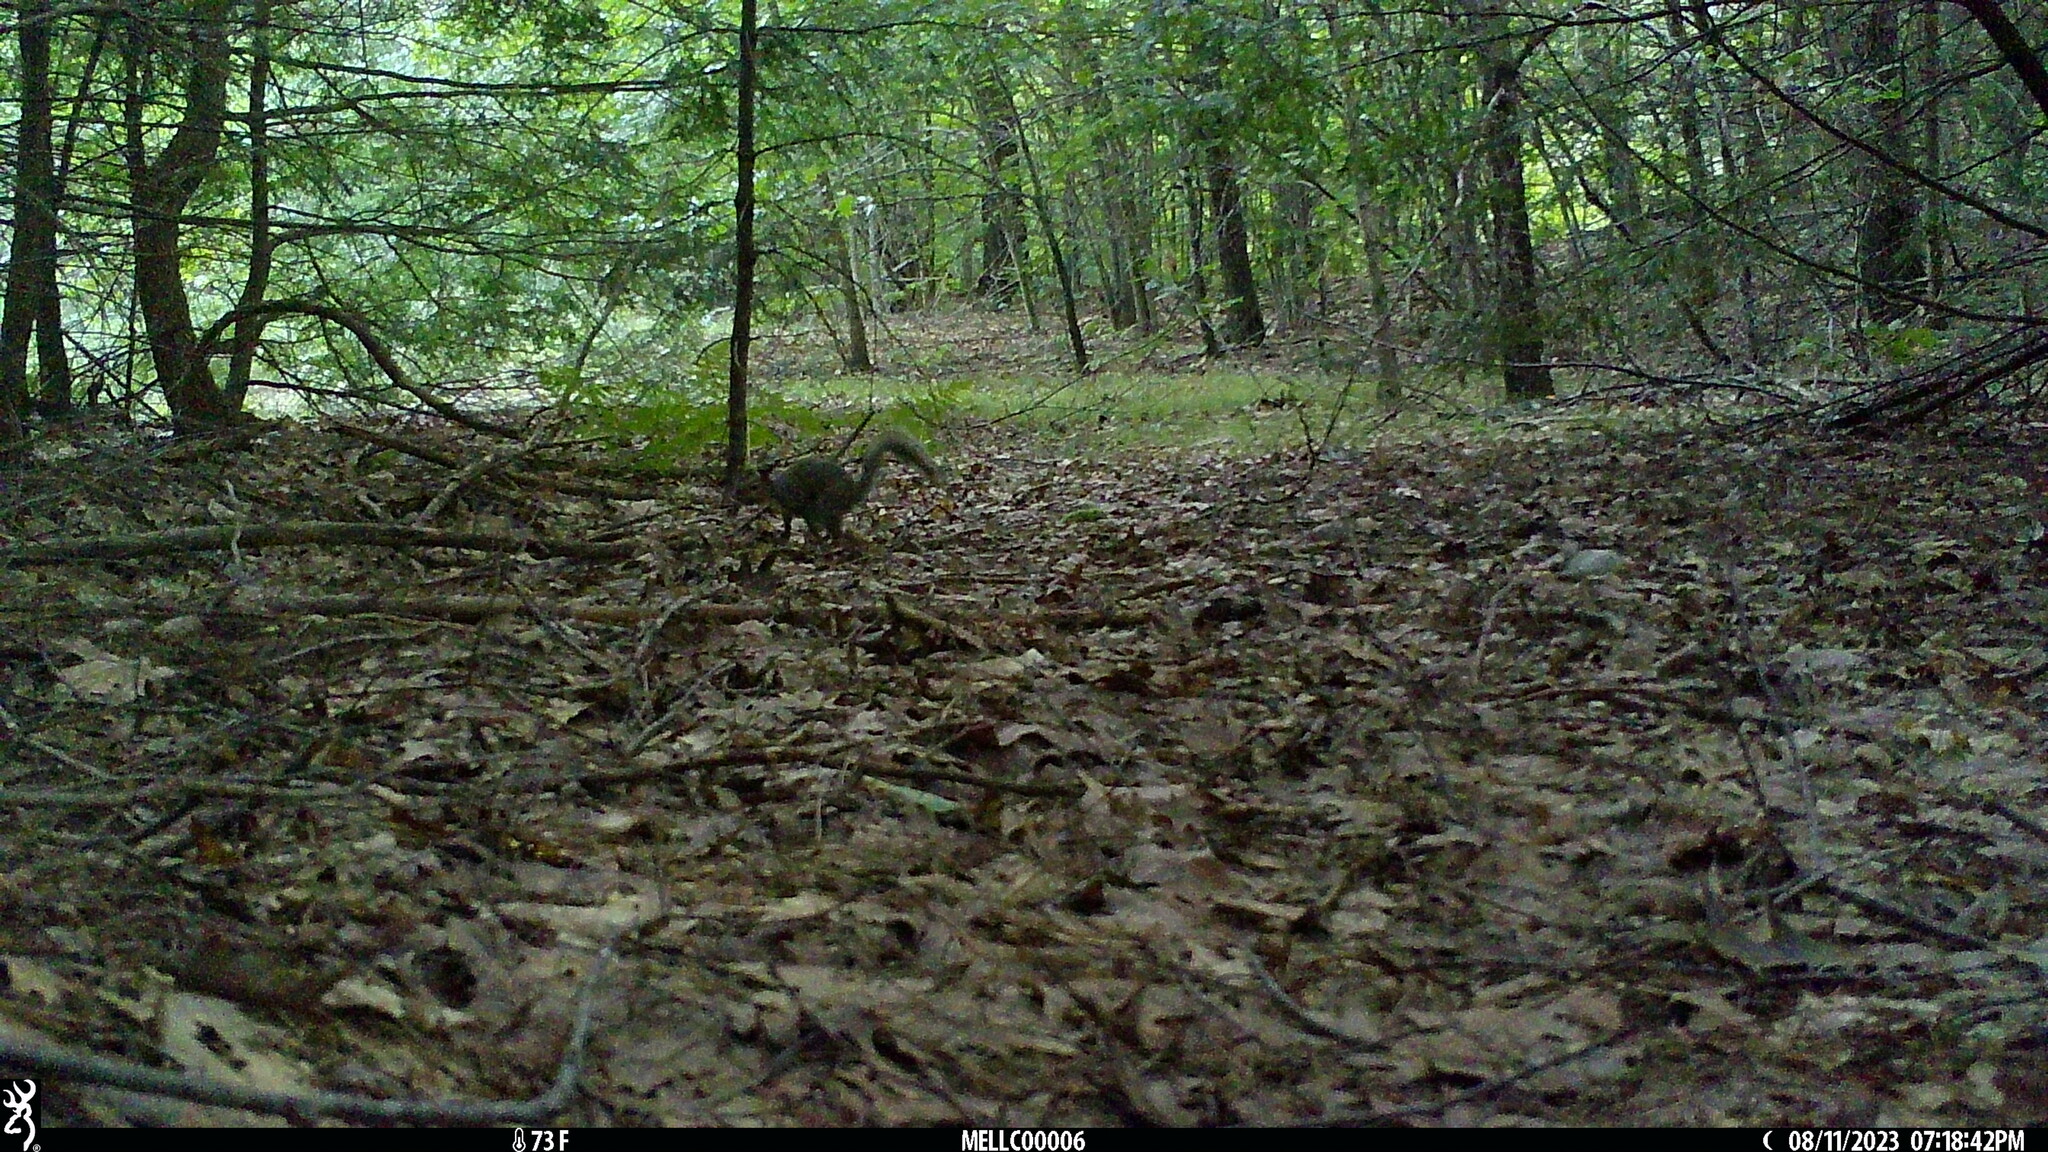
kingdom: Animalia
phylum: Chordata
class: Mammalia
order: Rodentia
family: Sciuridae
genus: Sciurus
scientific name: Sciurus carolinensis
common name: Eastern gray squirrel
